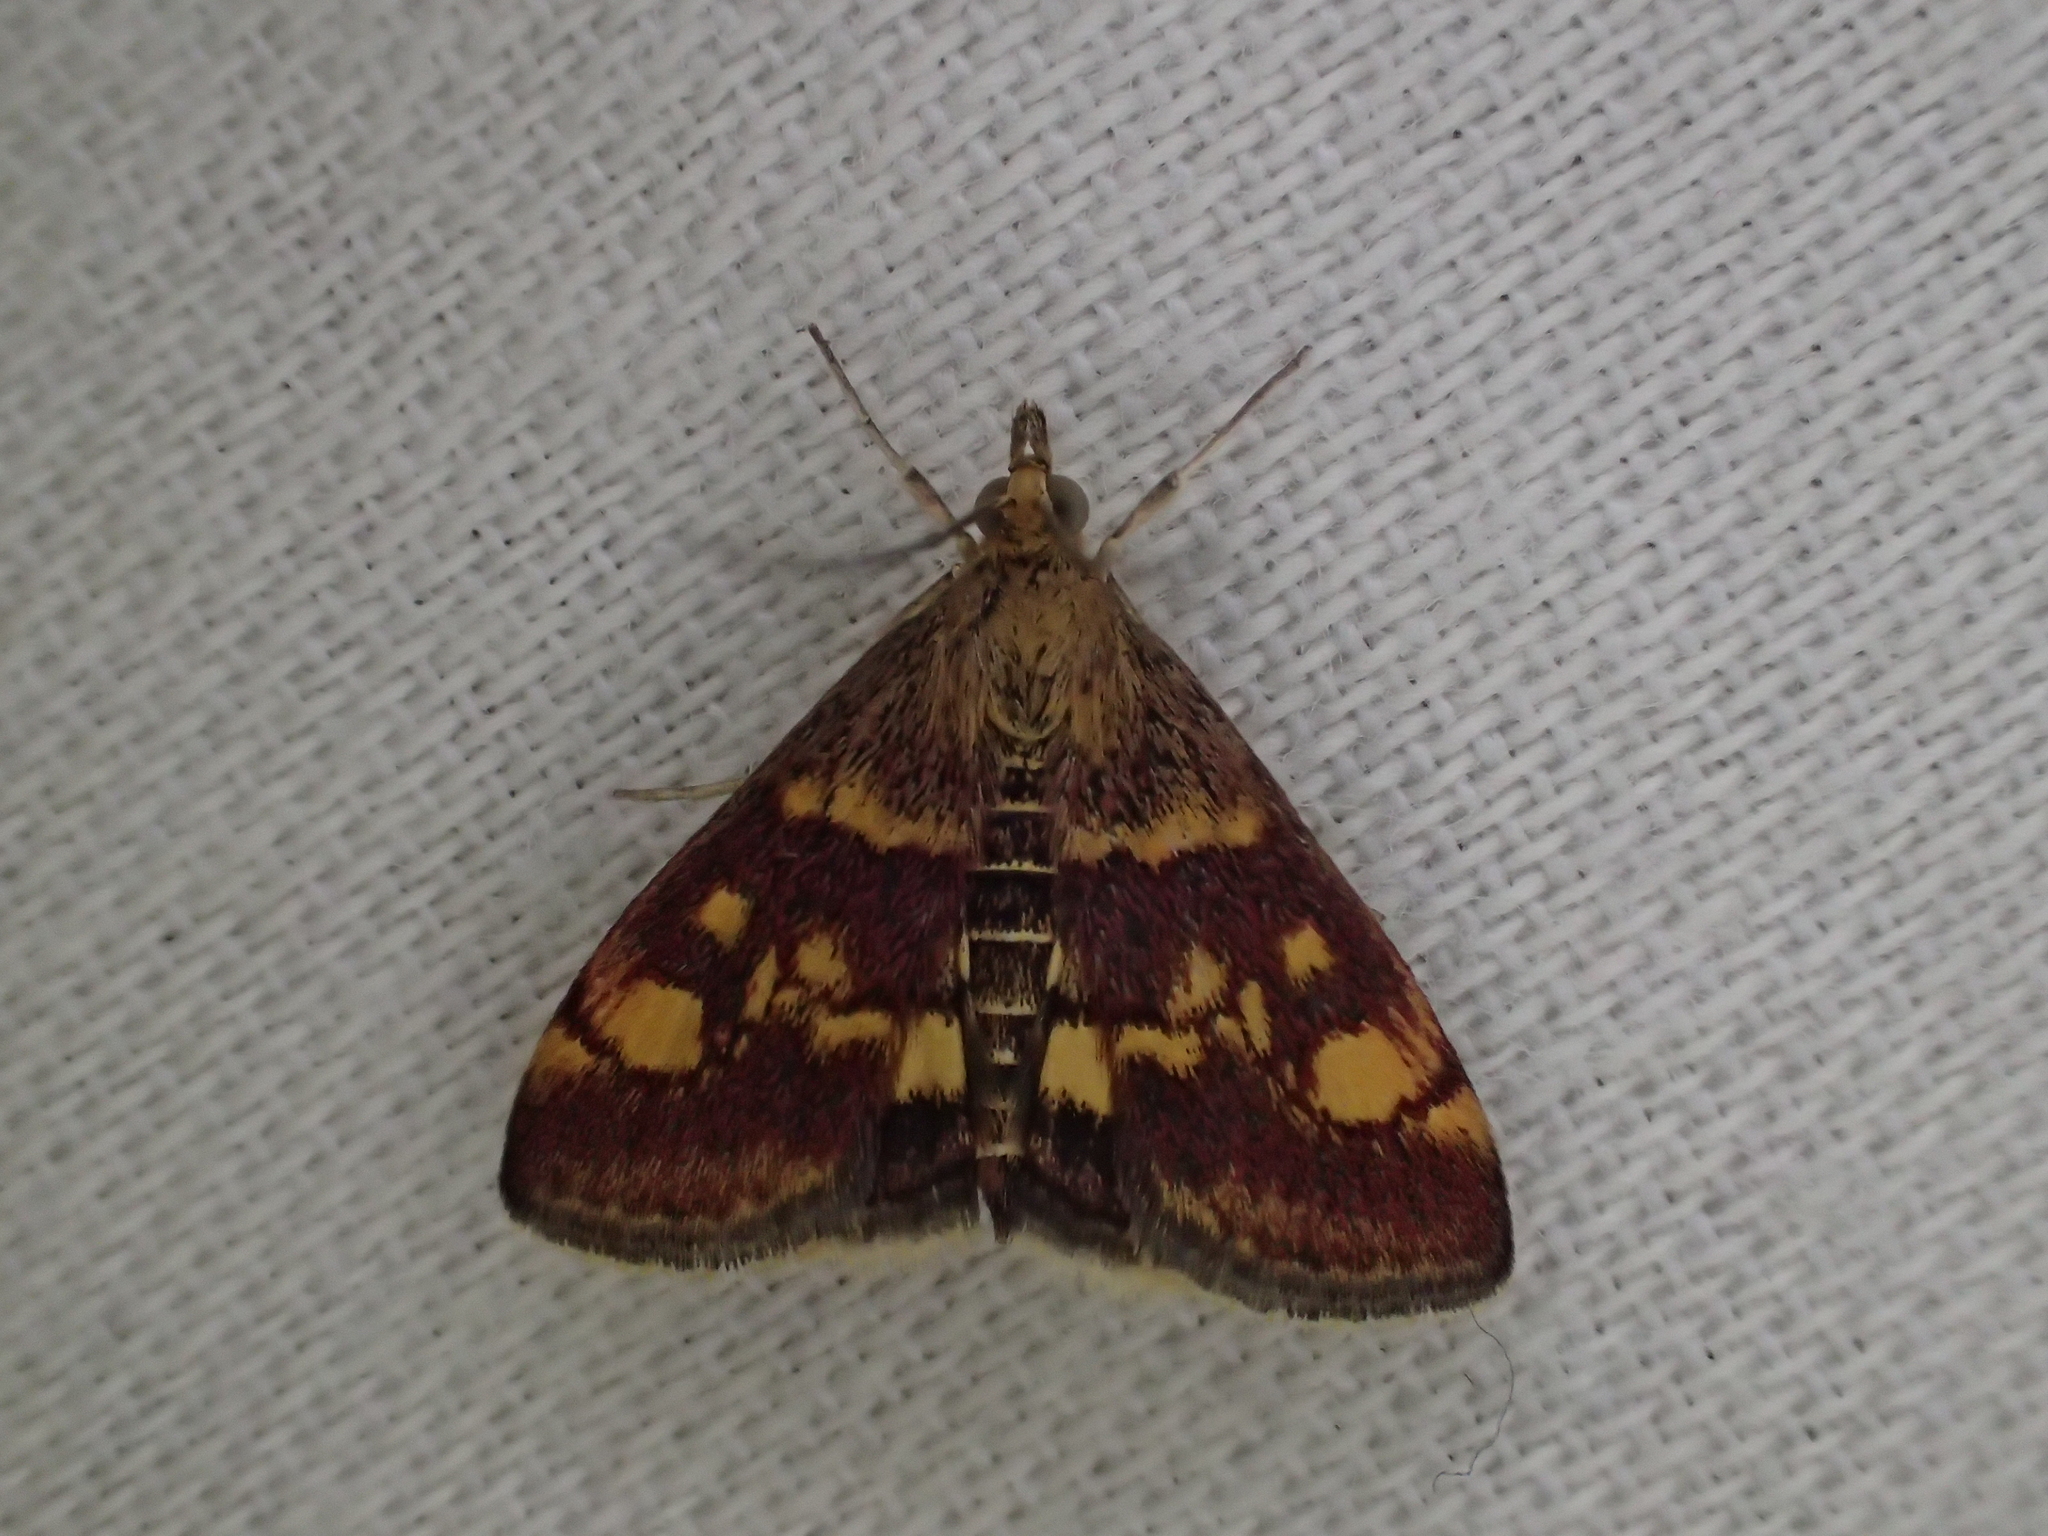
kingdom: Animalia
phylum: Arthropoda
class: Insecta
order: Lepidoptera
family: Crambidae
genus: Pyrausta
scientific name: Pyrausta aurata
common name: Small purple & gold
